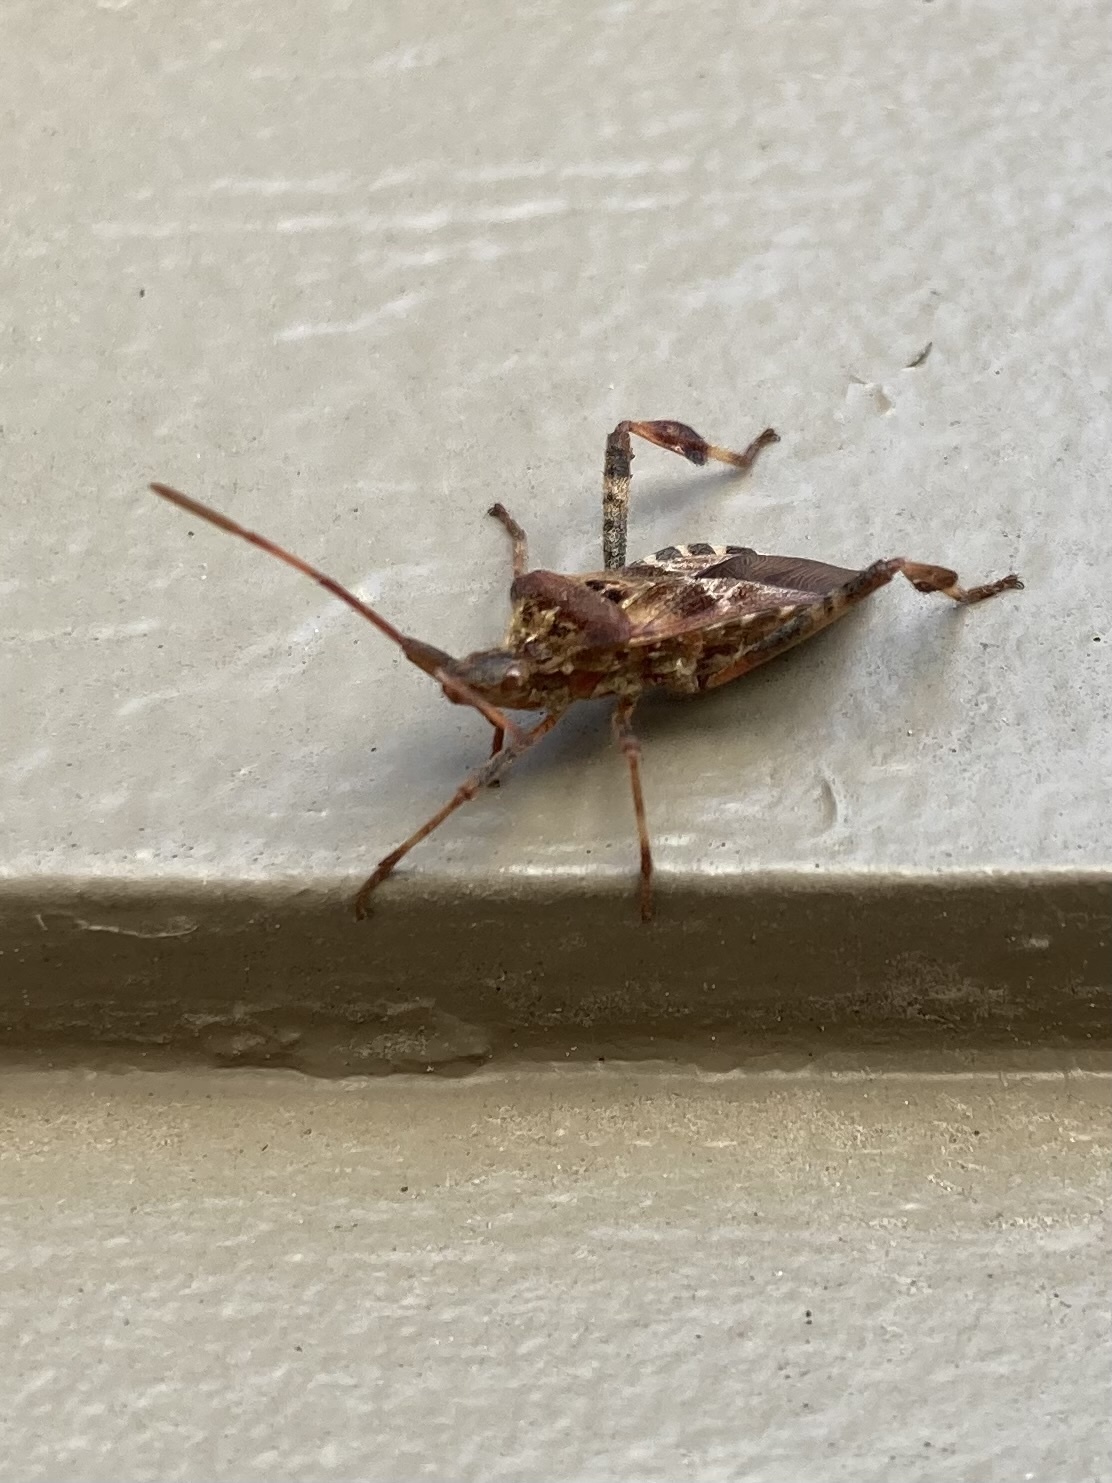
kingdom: Animalia
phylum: Arthropoda
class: Insecta
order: Hemiptera
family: Coreidae
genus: Leptoglossus
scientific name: Leptoglossus occidentalis
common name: Western conifer-seed bug
